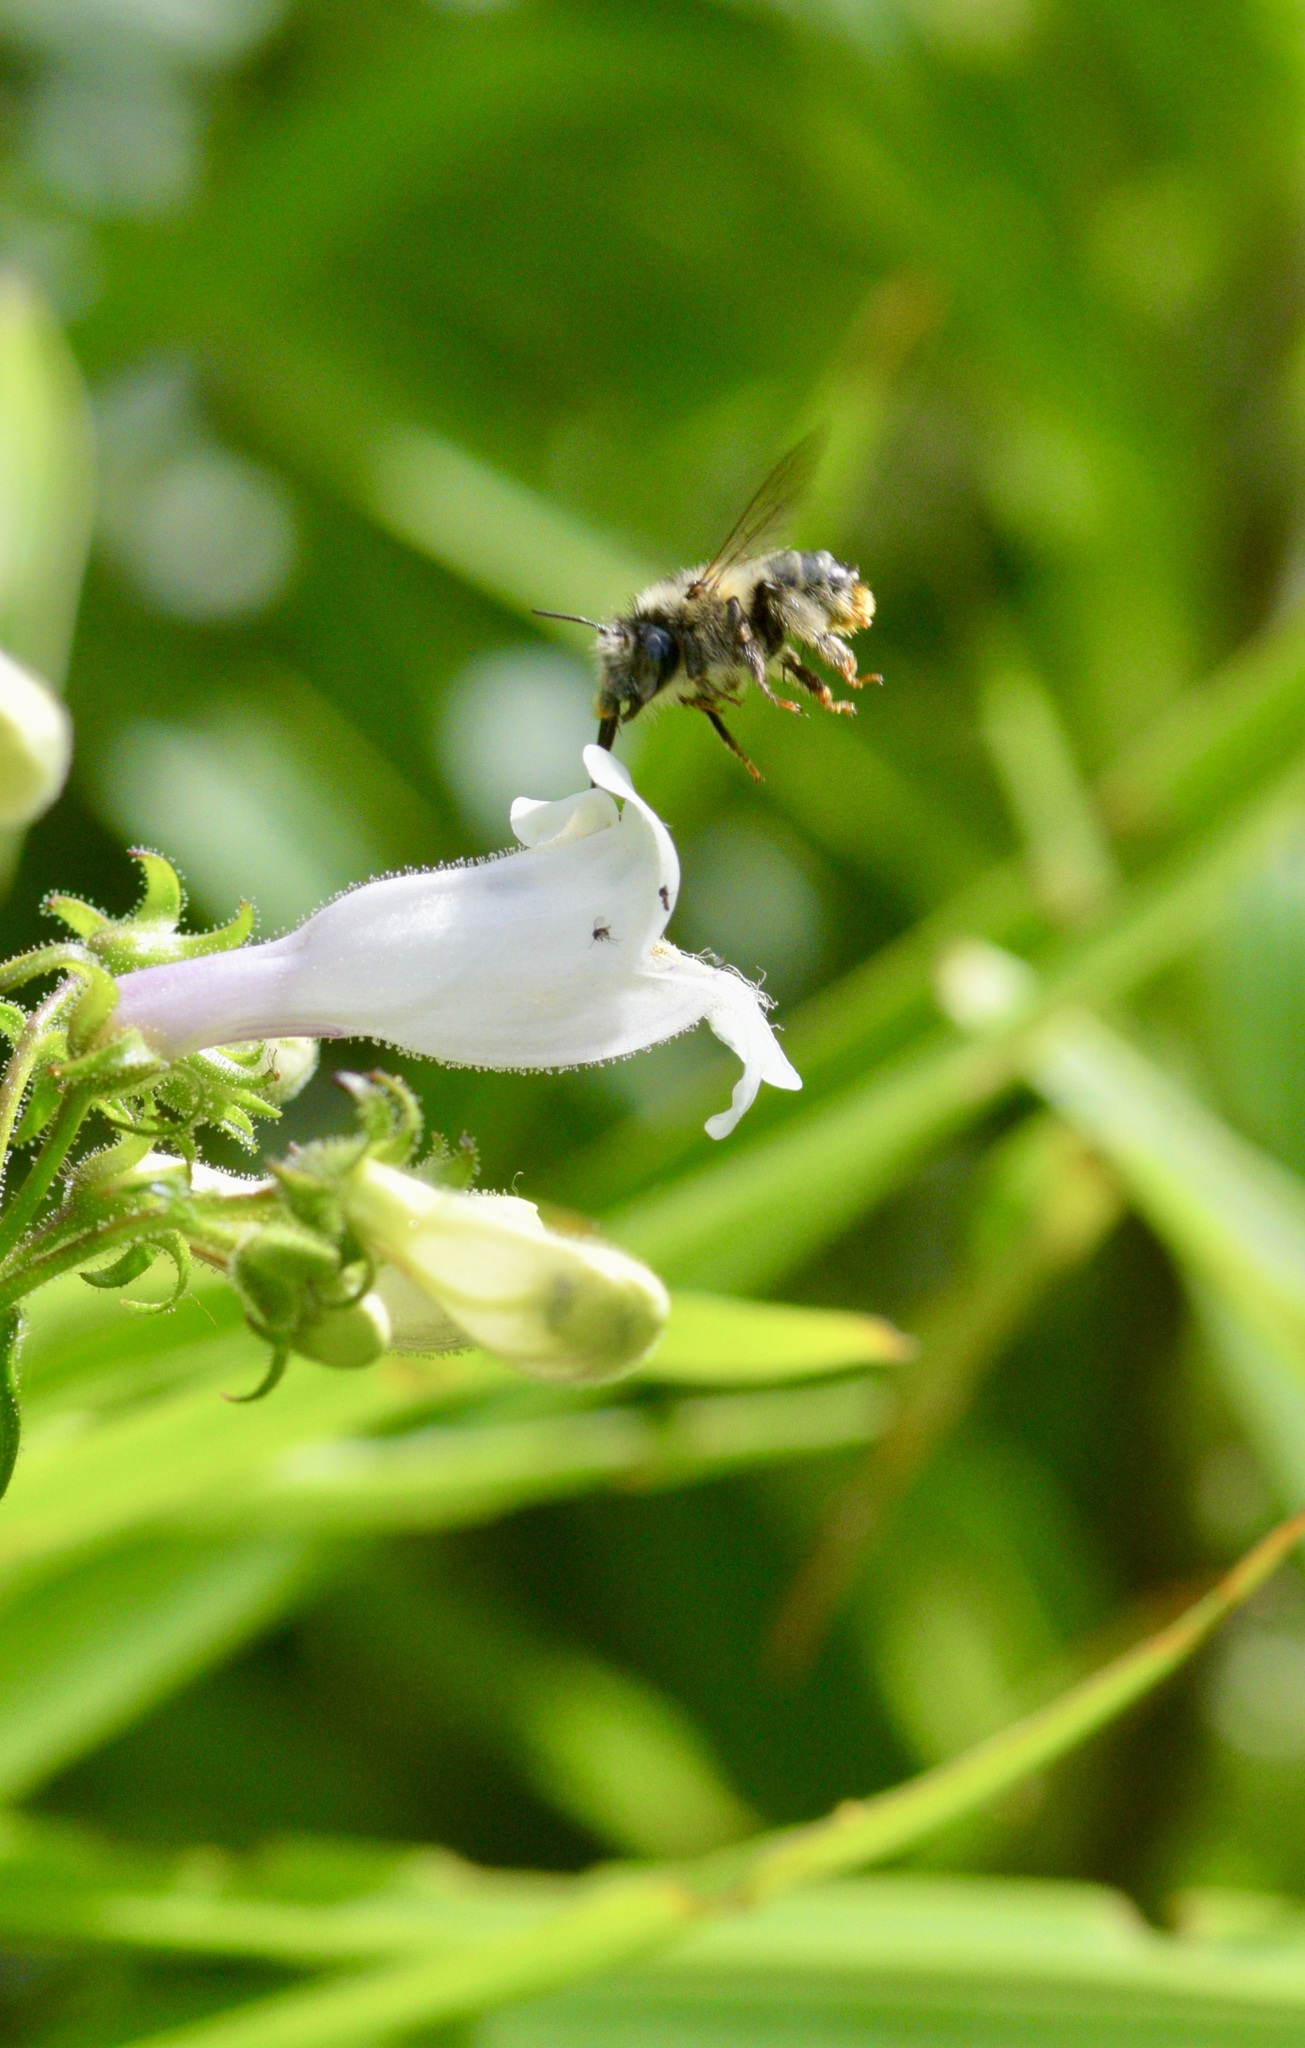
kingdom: Animalia
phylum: Arthropoda
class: Insecta
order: Hymenoptera
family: Apidae
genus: Anthophora
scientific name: Anthophora terminalis
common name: Orange-tipped wood-digger bee
